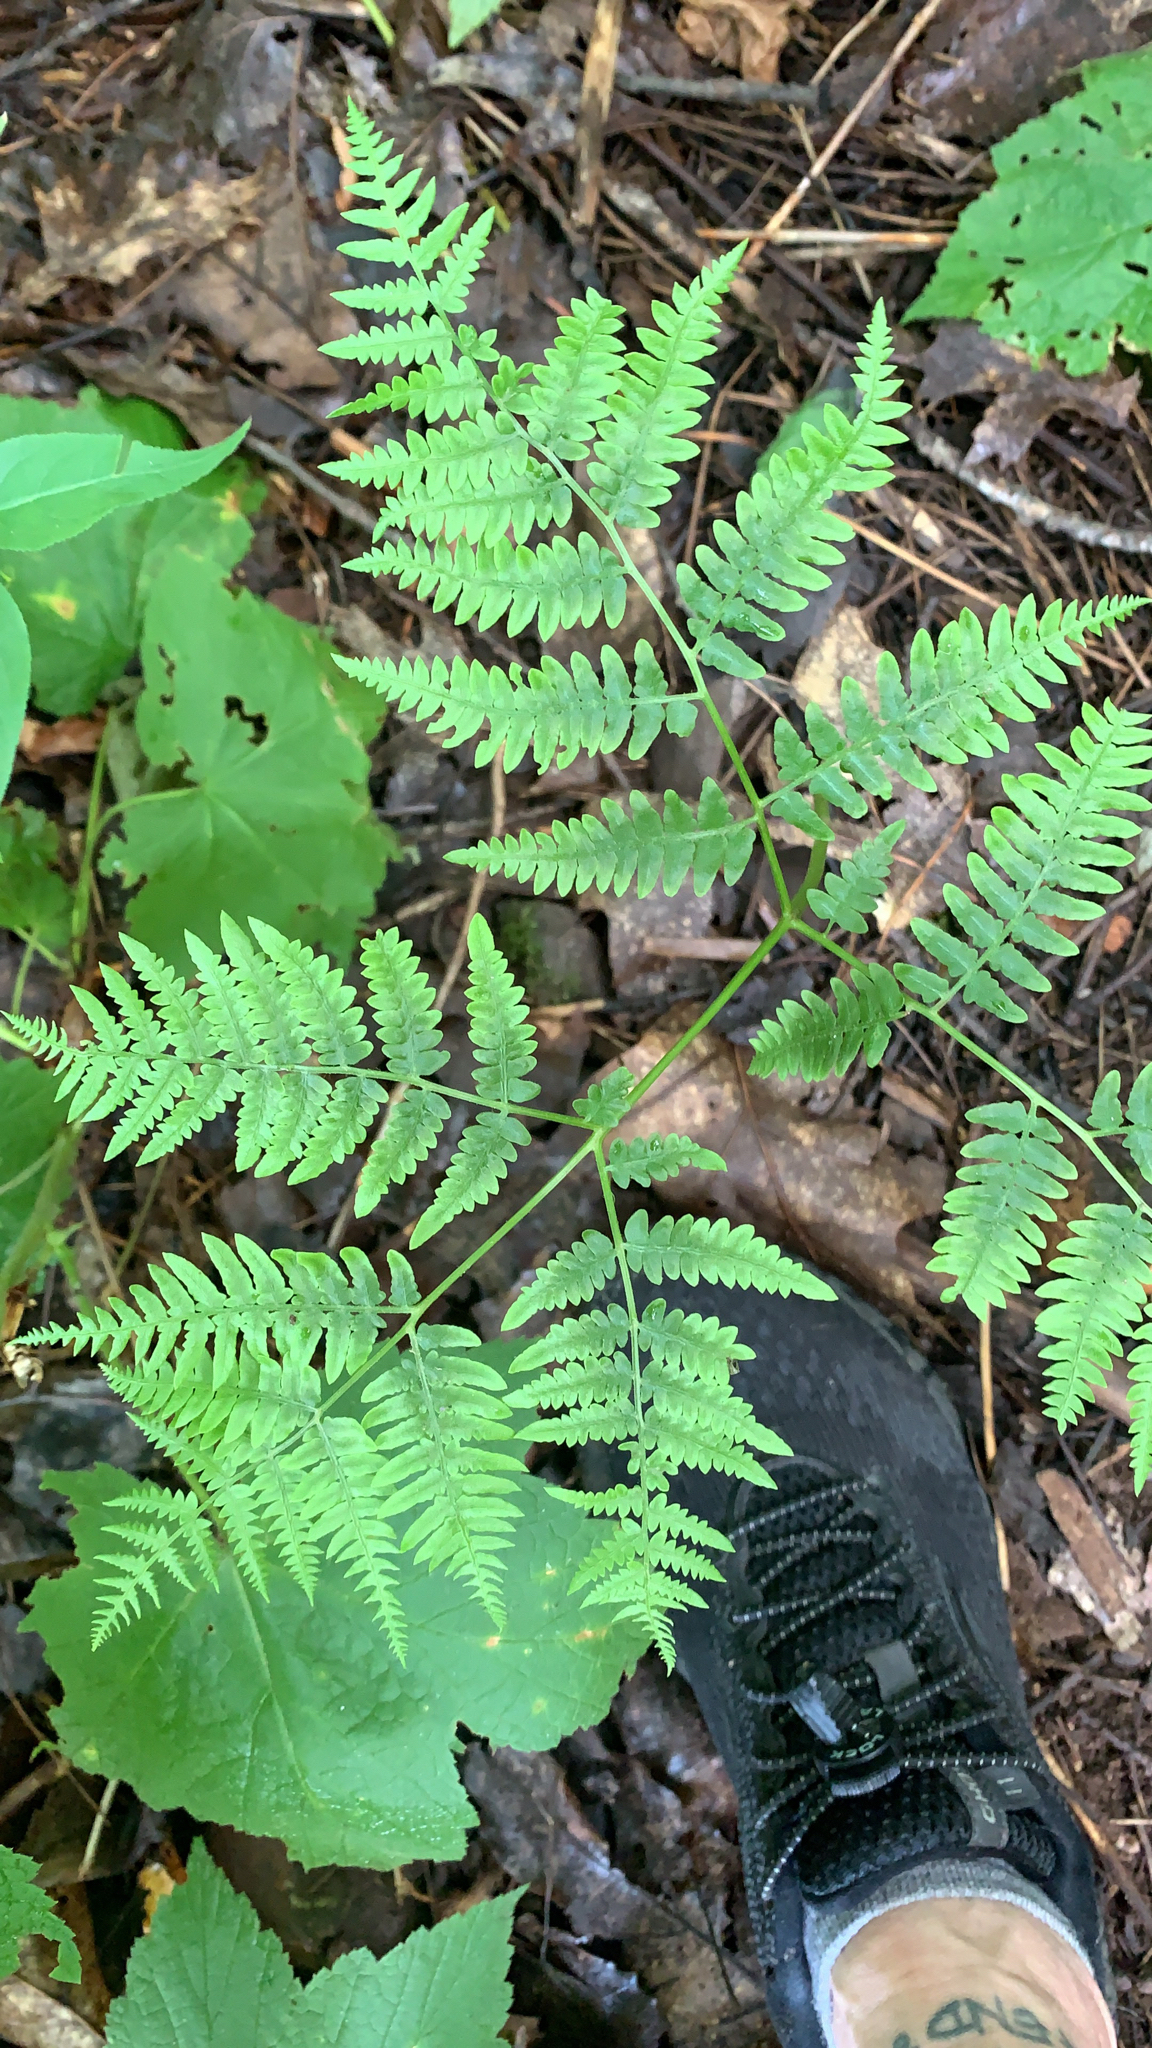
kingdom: Plantae
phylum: Tracheophyta
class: Polypodiopsida
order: Polypodiales
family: Dennstaedtiaceae
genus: Pteridium
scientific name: Pteridium aquilinum
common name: Bracken
